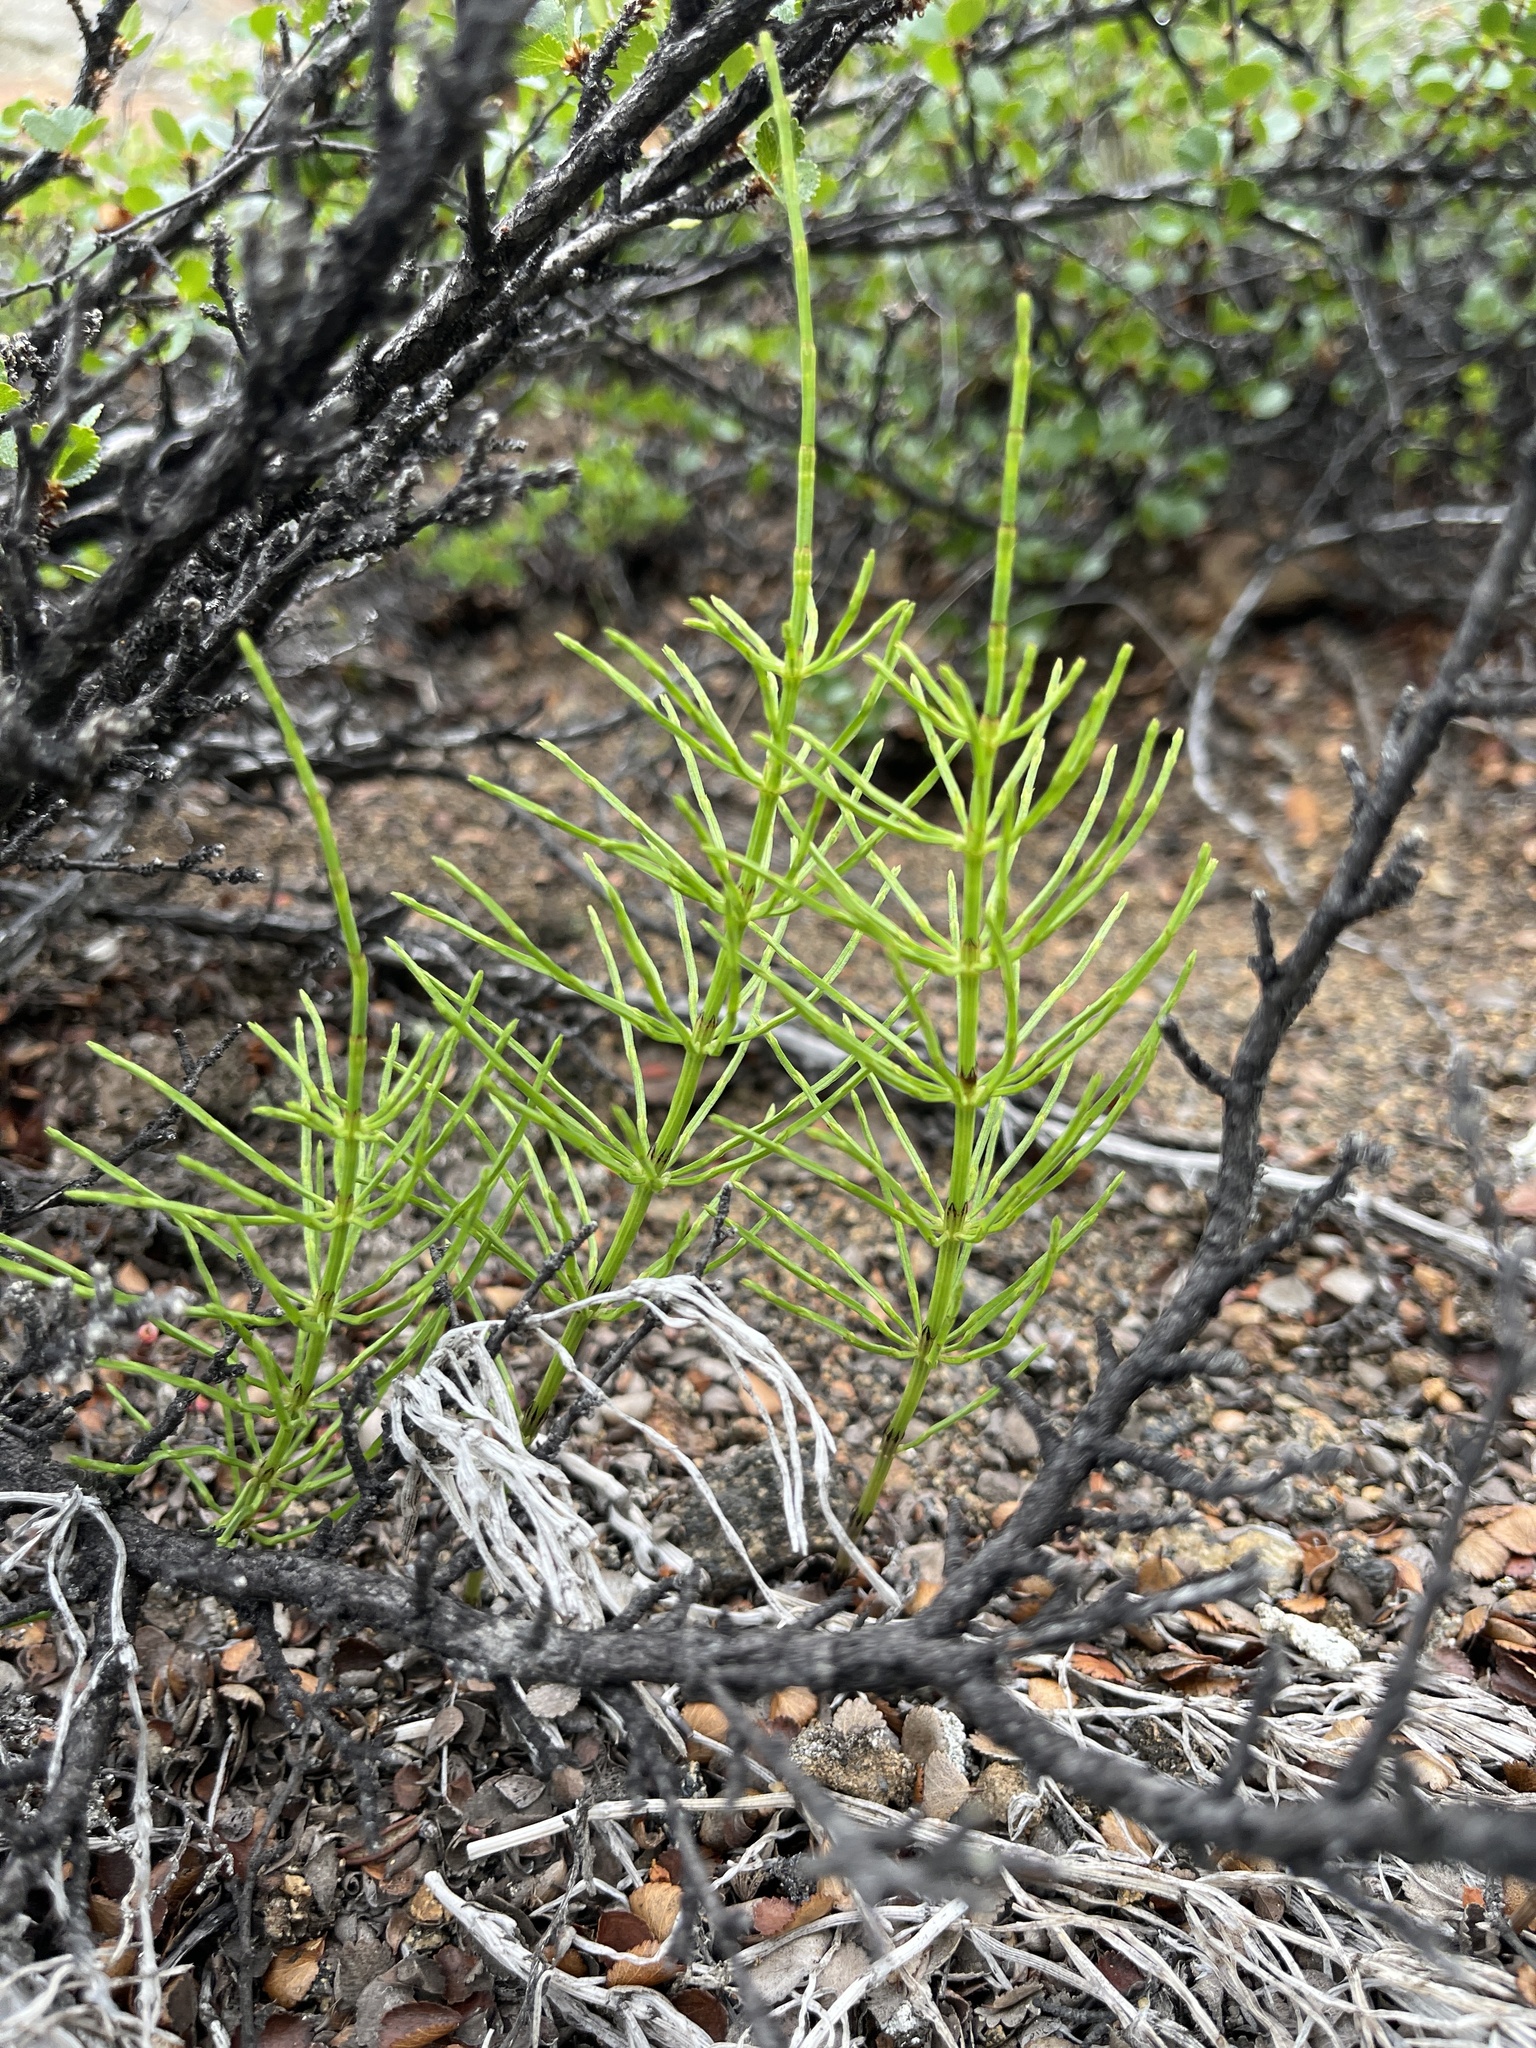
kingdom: Plantae
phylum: Tracheophyta
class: Polypodiopsida
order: Equisetales
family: Equisetaceae
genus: Equisetum
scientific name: Equisetum arvense
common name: Field horsetail
